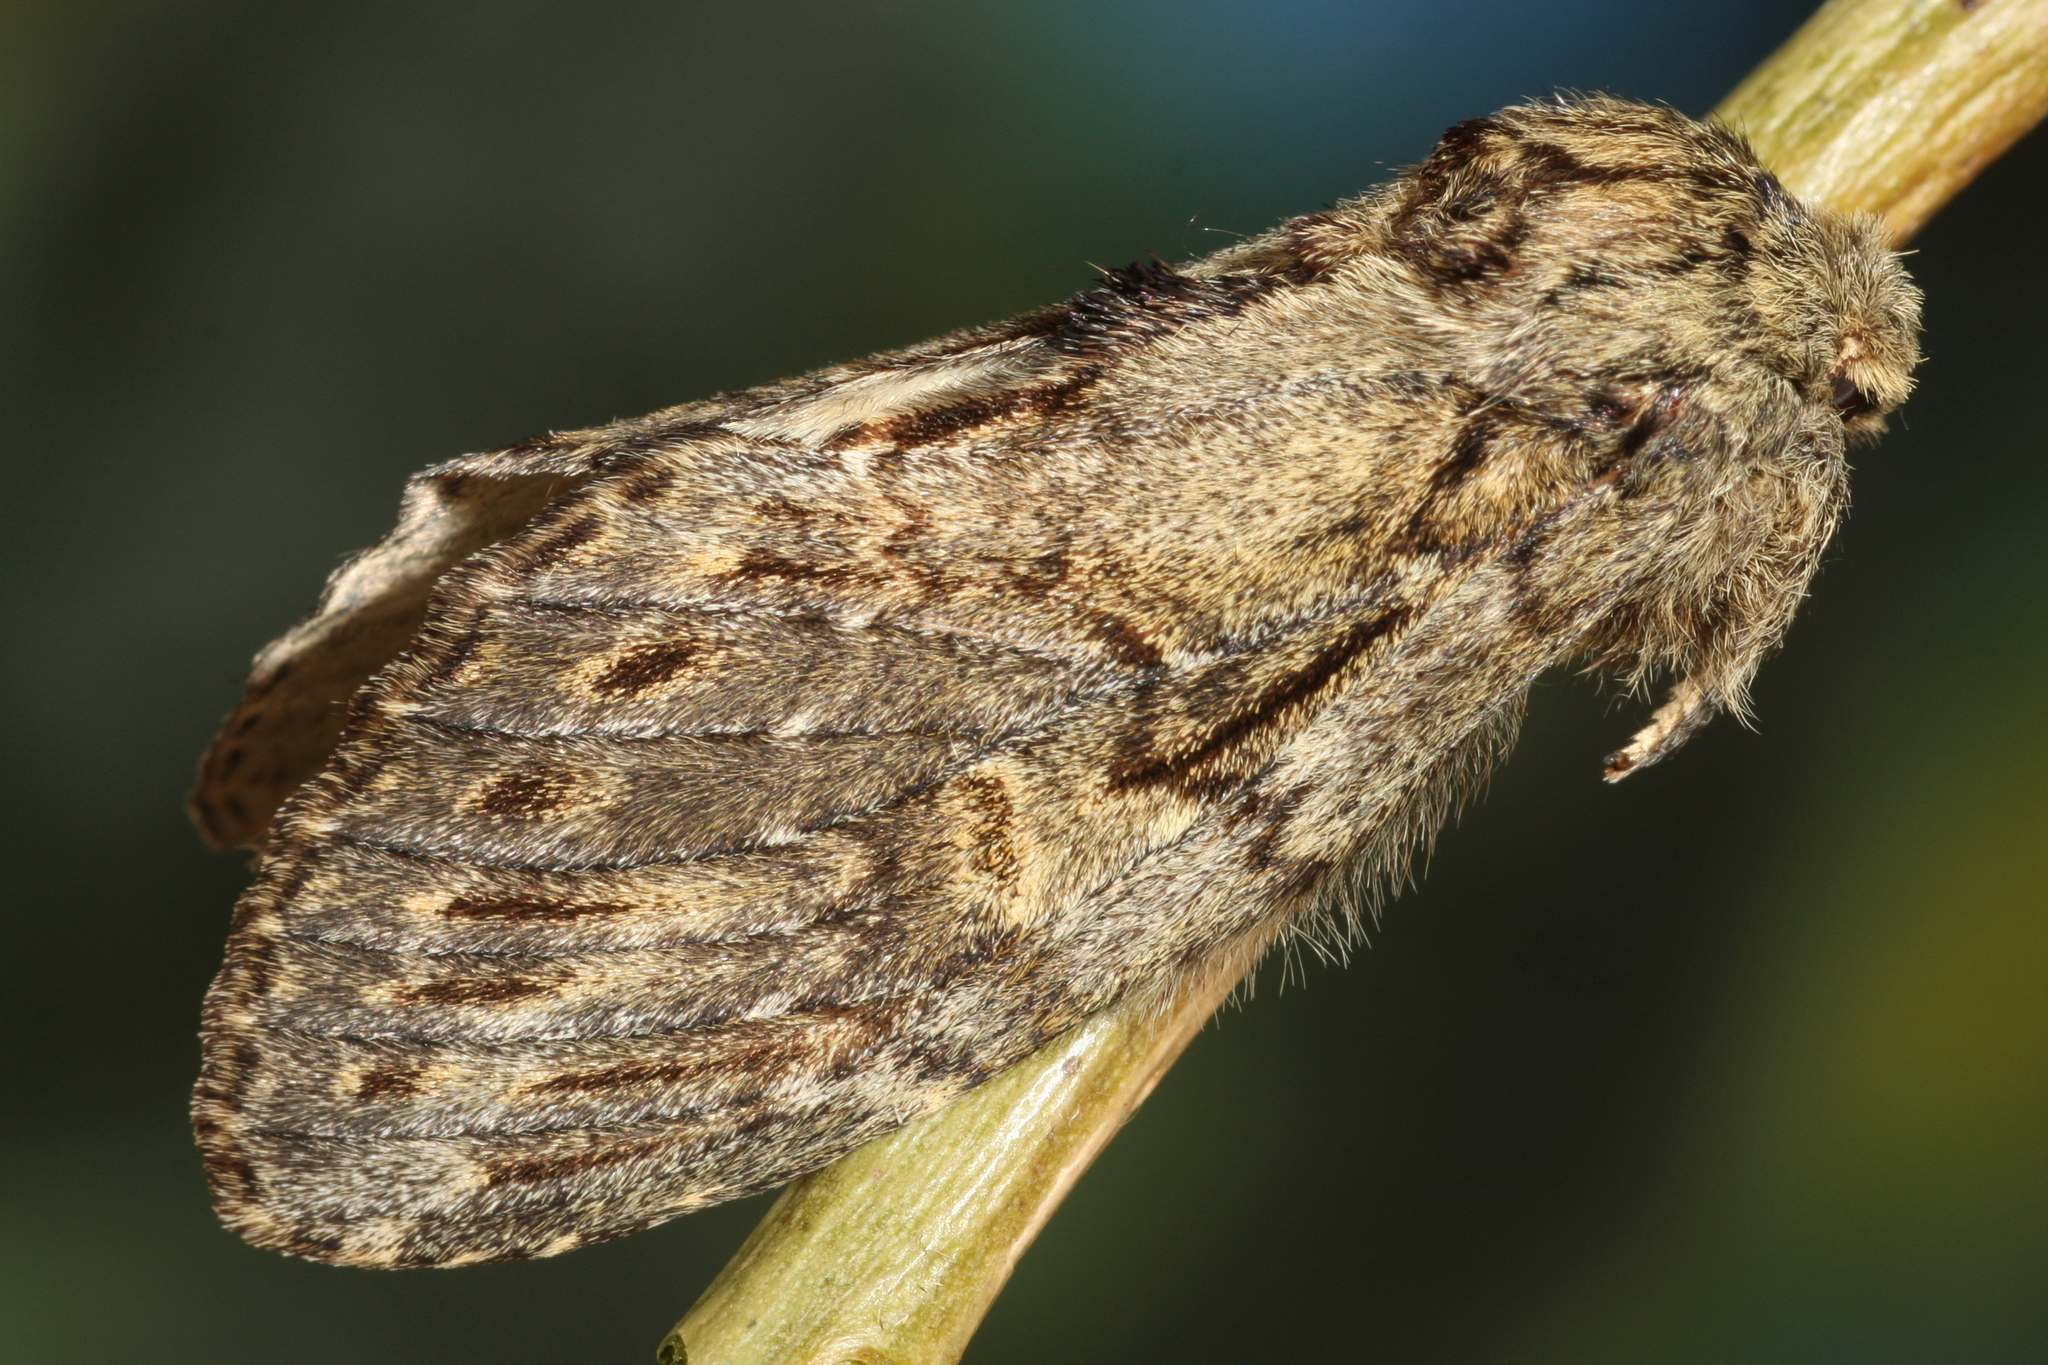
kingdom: Animalia
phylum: Arthropoda
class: Insecta
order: Lepidoptera
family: Notodontidae
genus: Peridea
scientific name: Peridea anceps
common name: Great prominent
